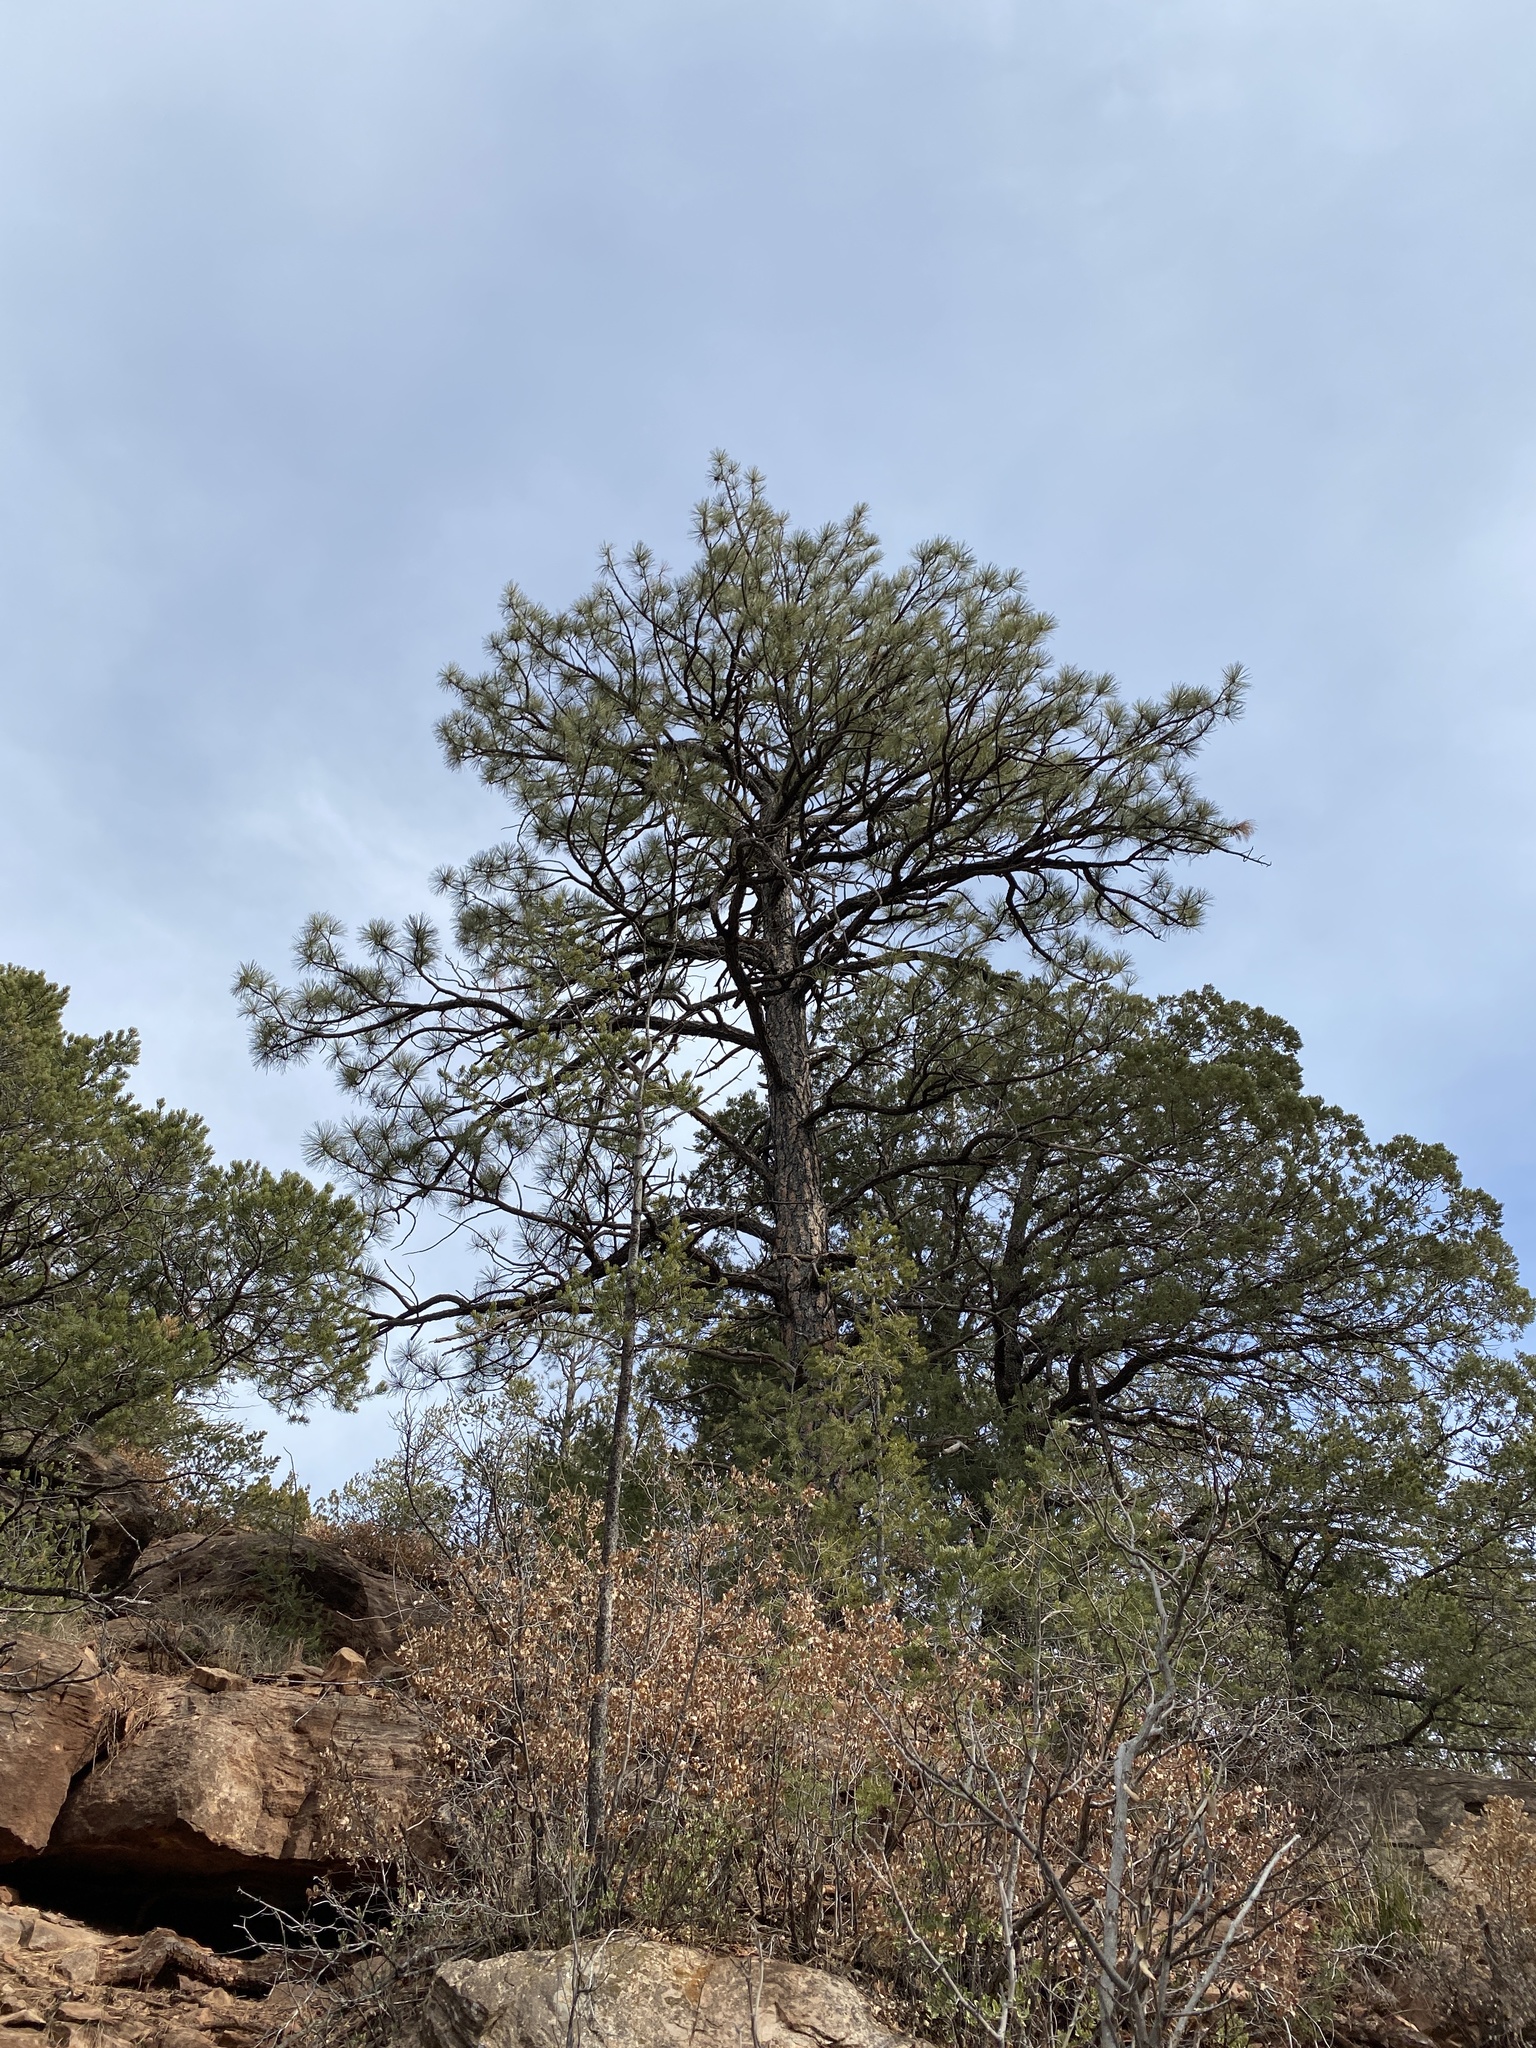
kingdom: Plantae
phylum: Tracheophyta
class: Pinopsida
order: Pinales
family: Pinaceae
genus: Pinus
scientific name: Pinus ponderosa
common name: Western yellow-pine
